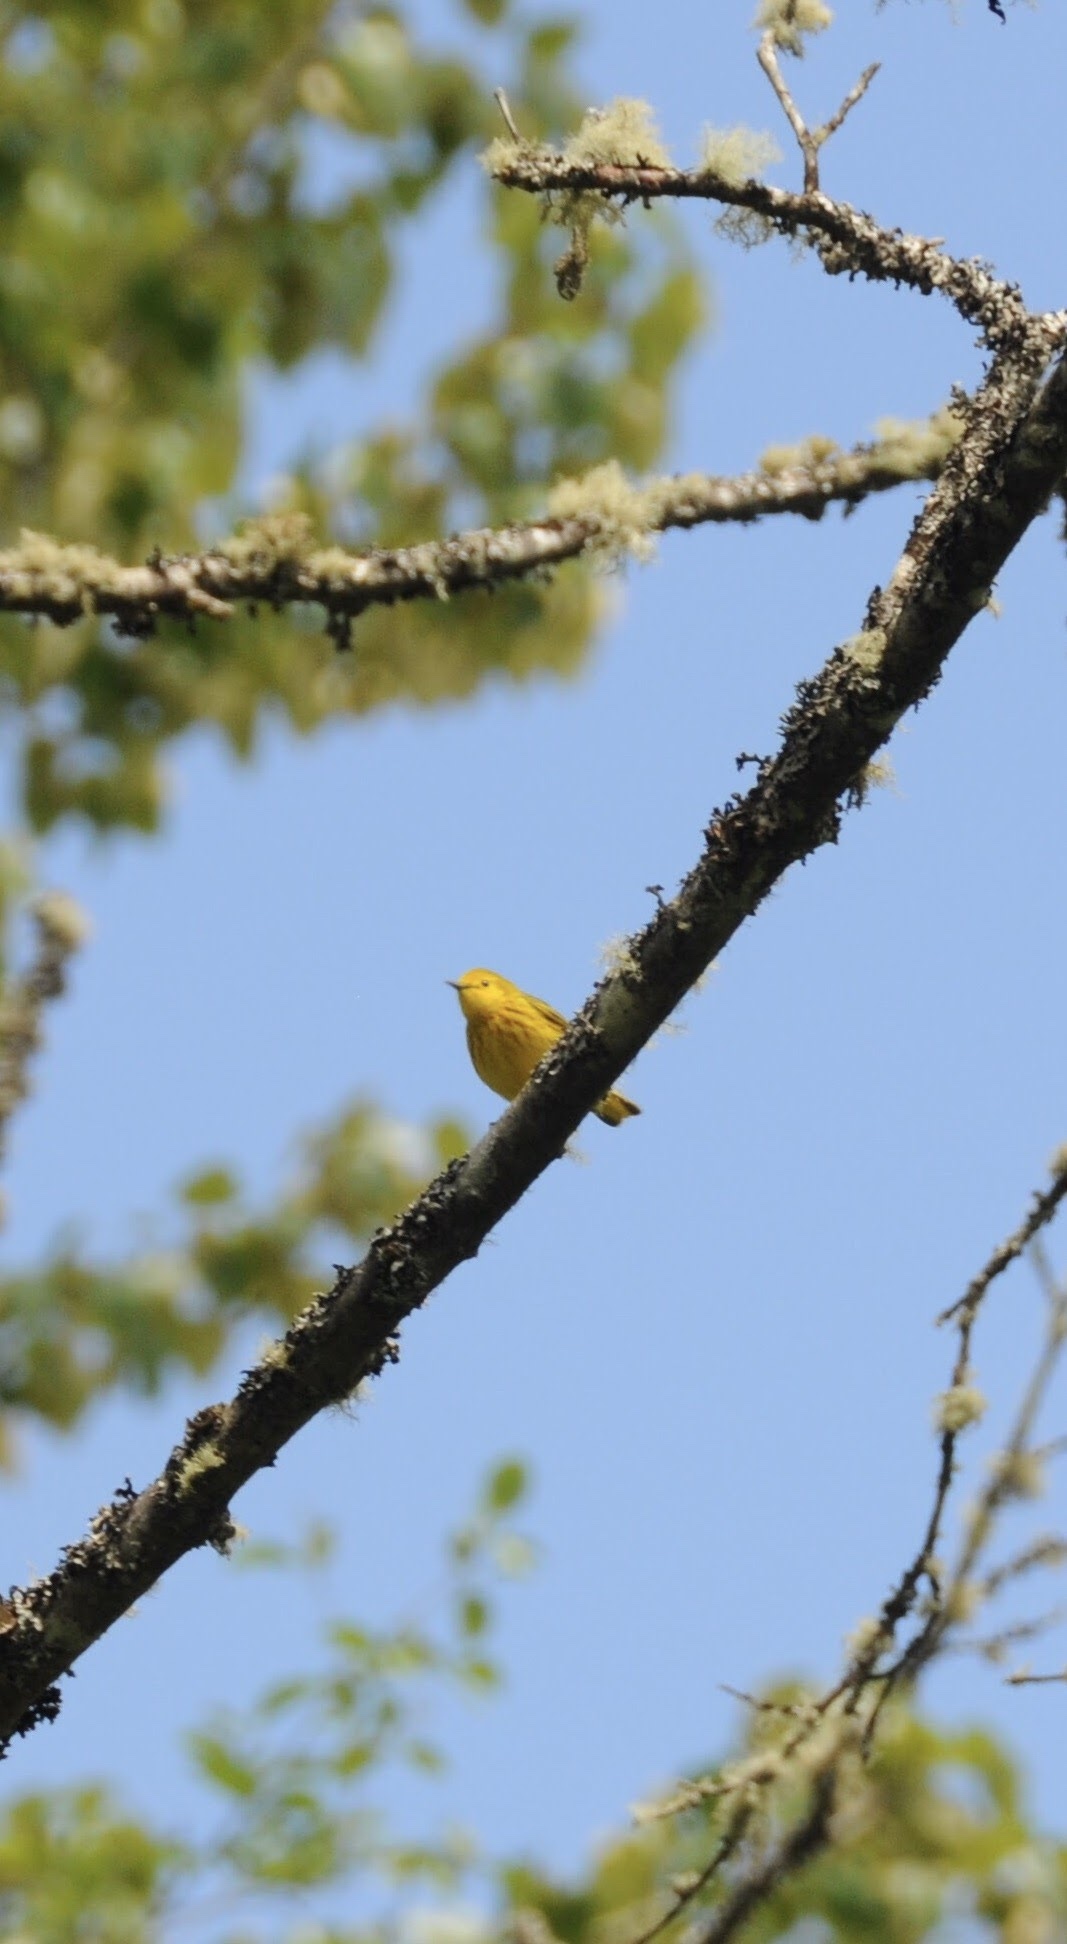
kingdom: Animalia
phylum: Chordata
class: Aves
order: Passeriformes
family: Parulidae
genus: Setophaga
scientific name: Setophaga petechia
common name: Yellow warbler
